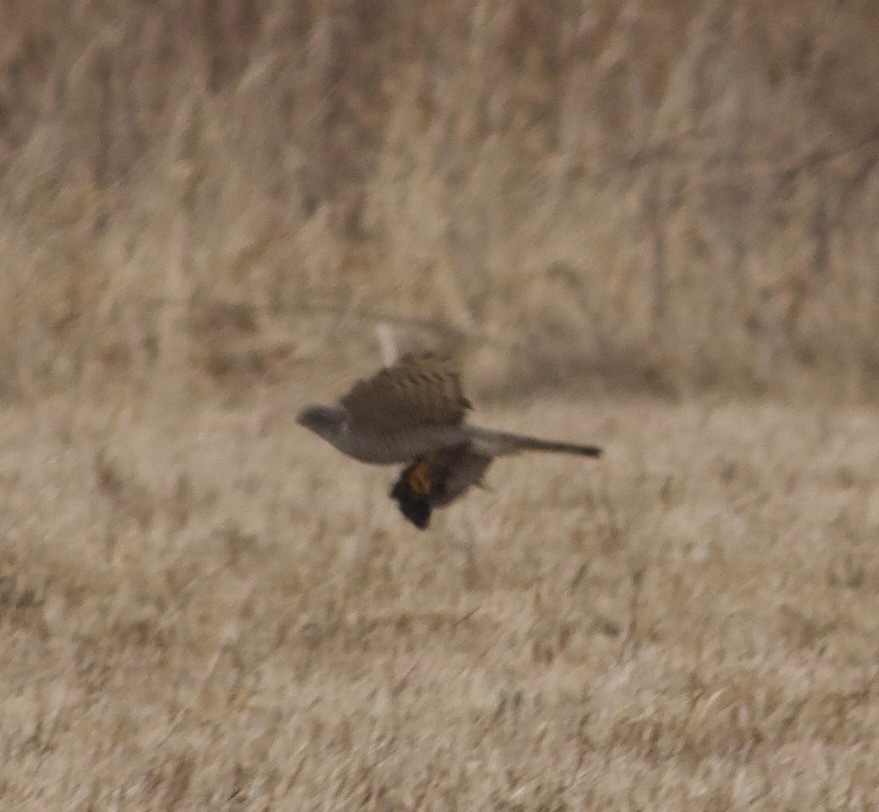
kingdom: Animalia
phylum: Chordata
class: Aves
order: Accipitriformes
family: Accipitridae
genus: Accipiter
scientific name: Accipiter nisus
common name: Eurasian sparrowhawk
